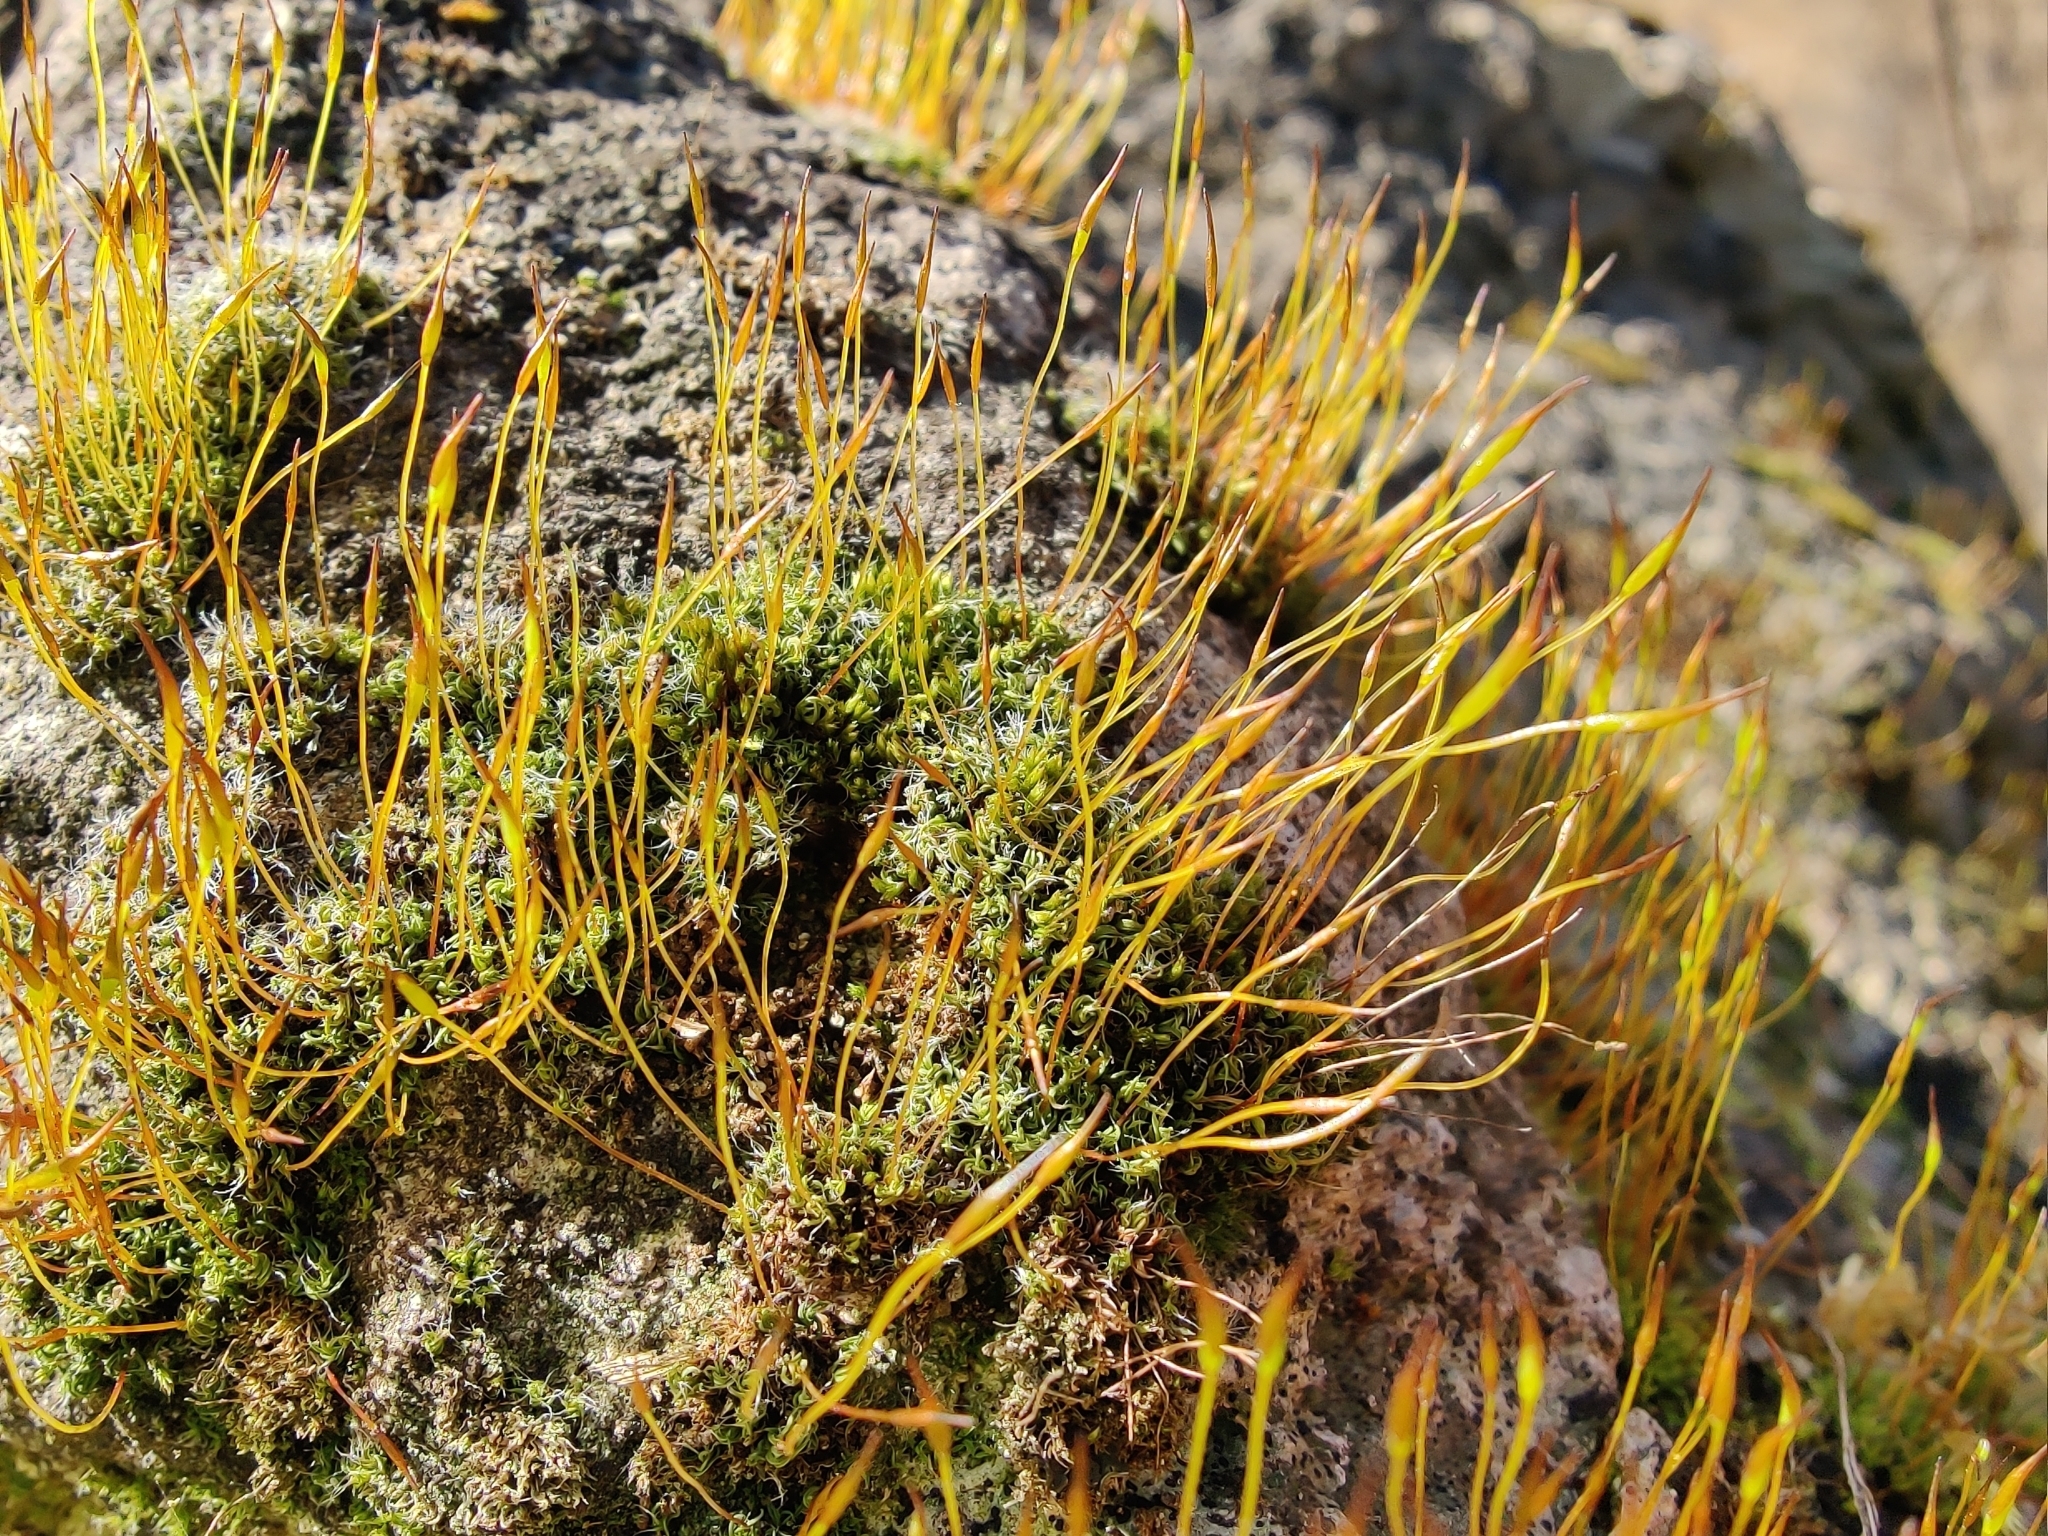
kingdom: Plantae
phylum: Bryophyta
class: Bryopsida
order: Pottiales
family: Pottiaceae
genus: Tortula
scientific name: Tortula muralis
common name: Wall screw-moss
